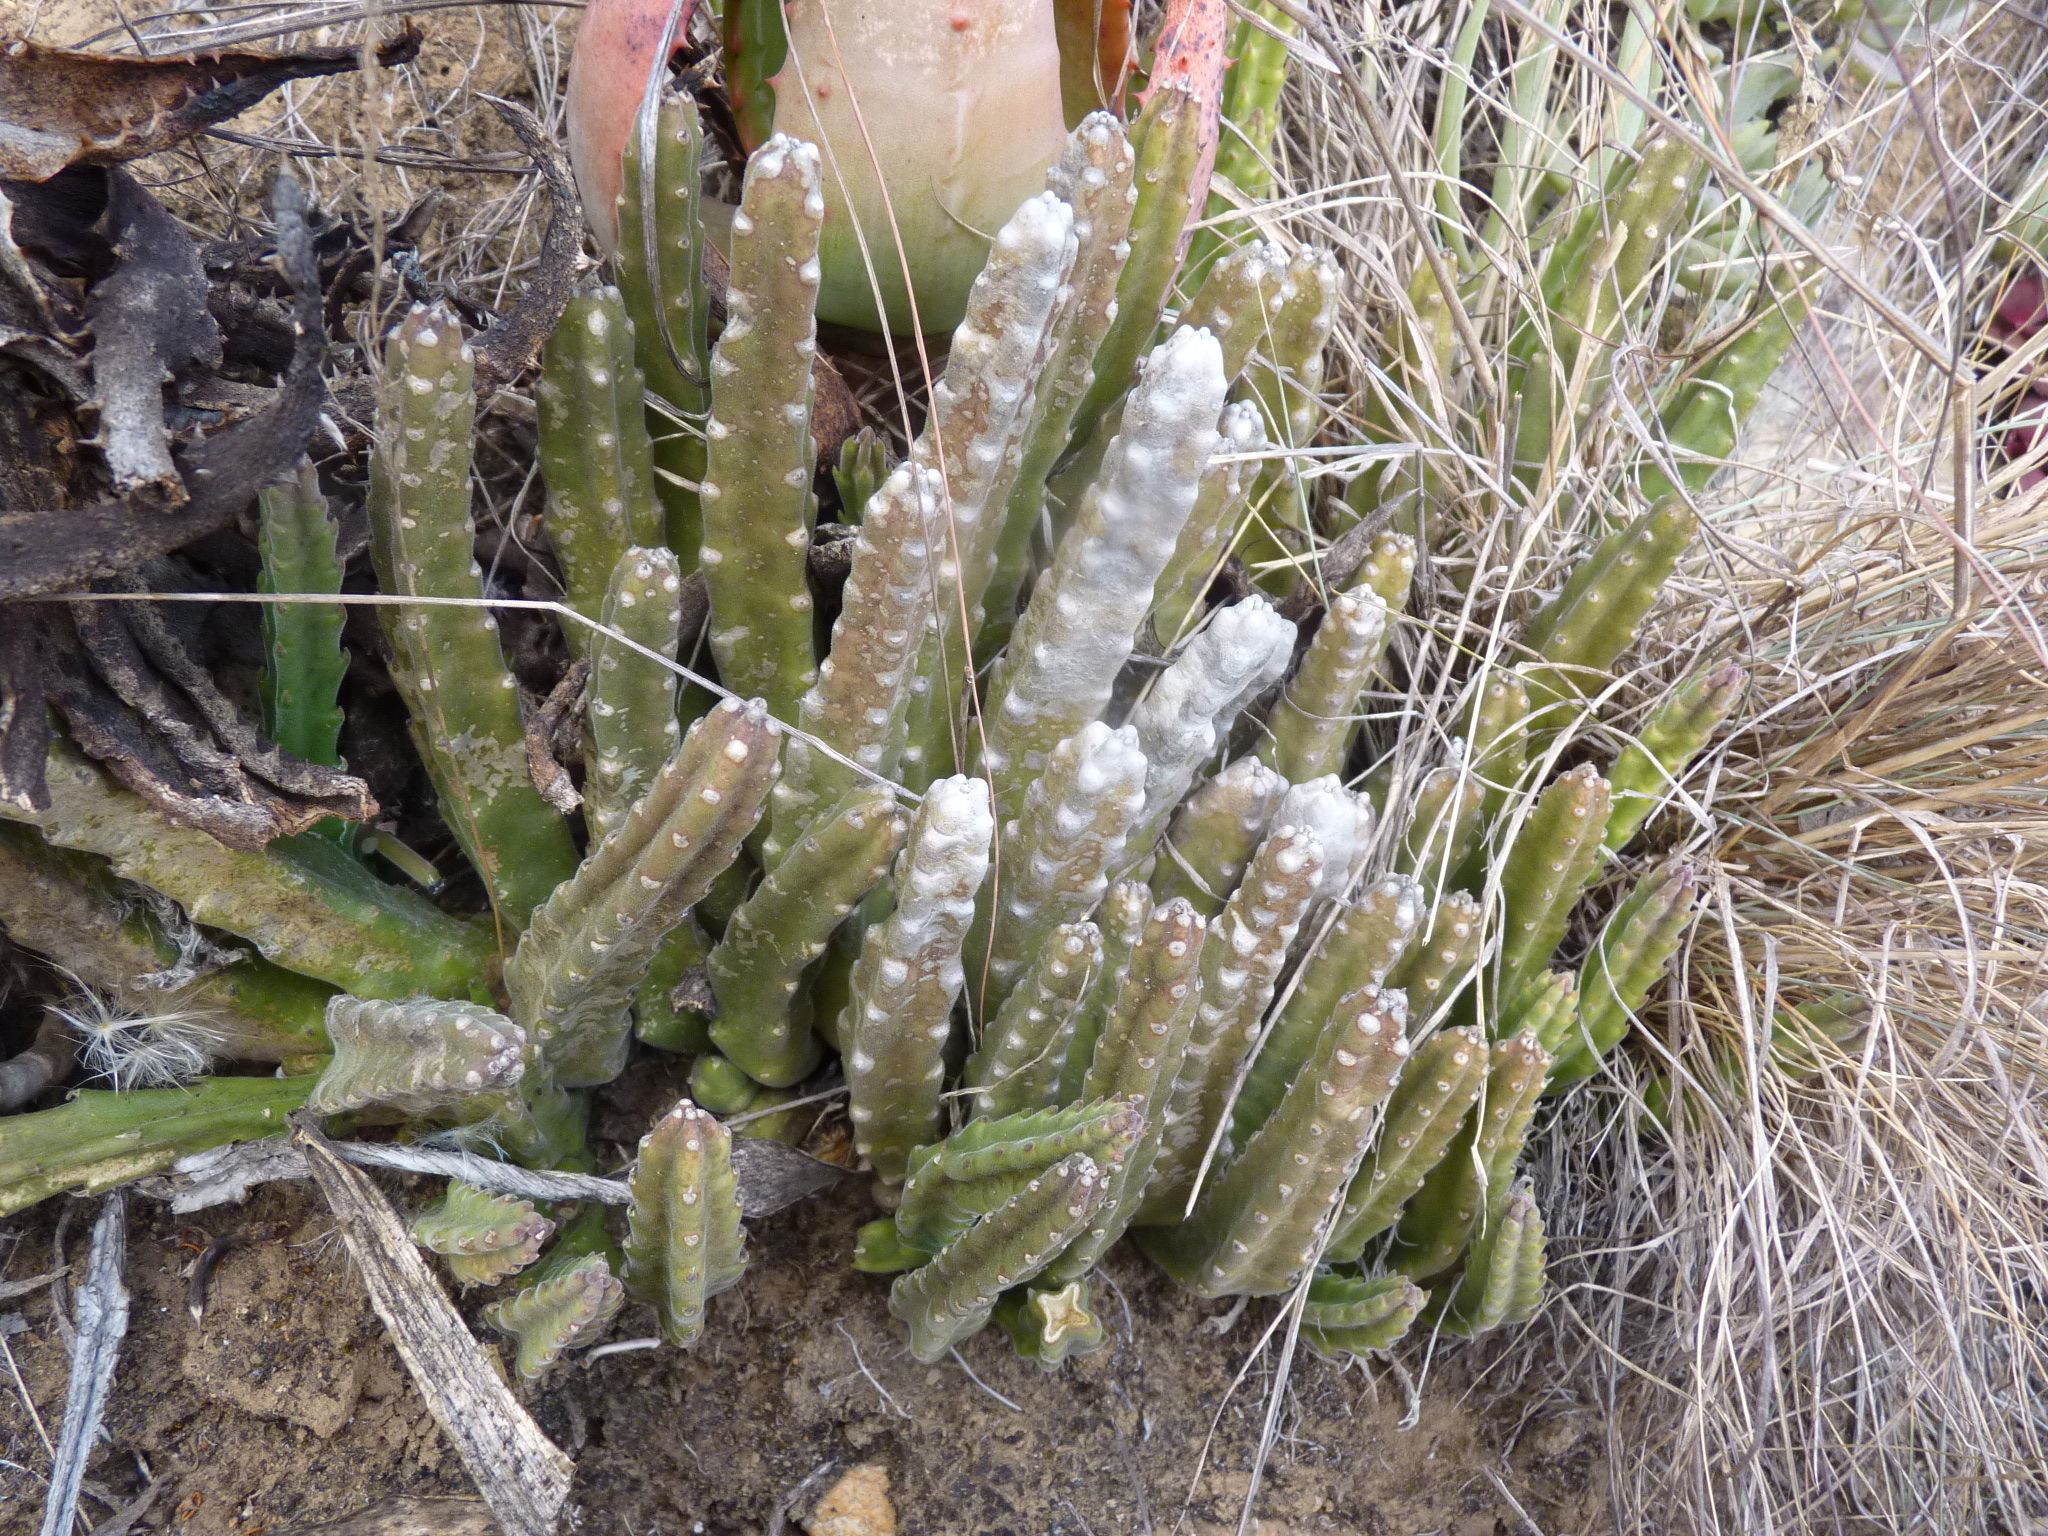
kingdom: Plantae
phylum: Tracheophyta
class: Magnoliopsida
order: Gentianales
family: Apocynaceae
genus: Ceropegia
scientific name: Ceropegia pulvinata
